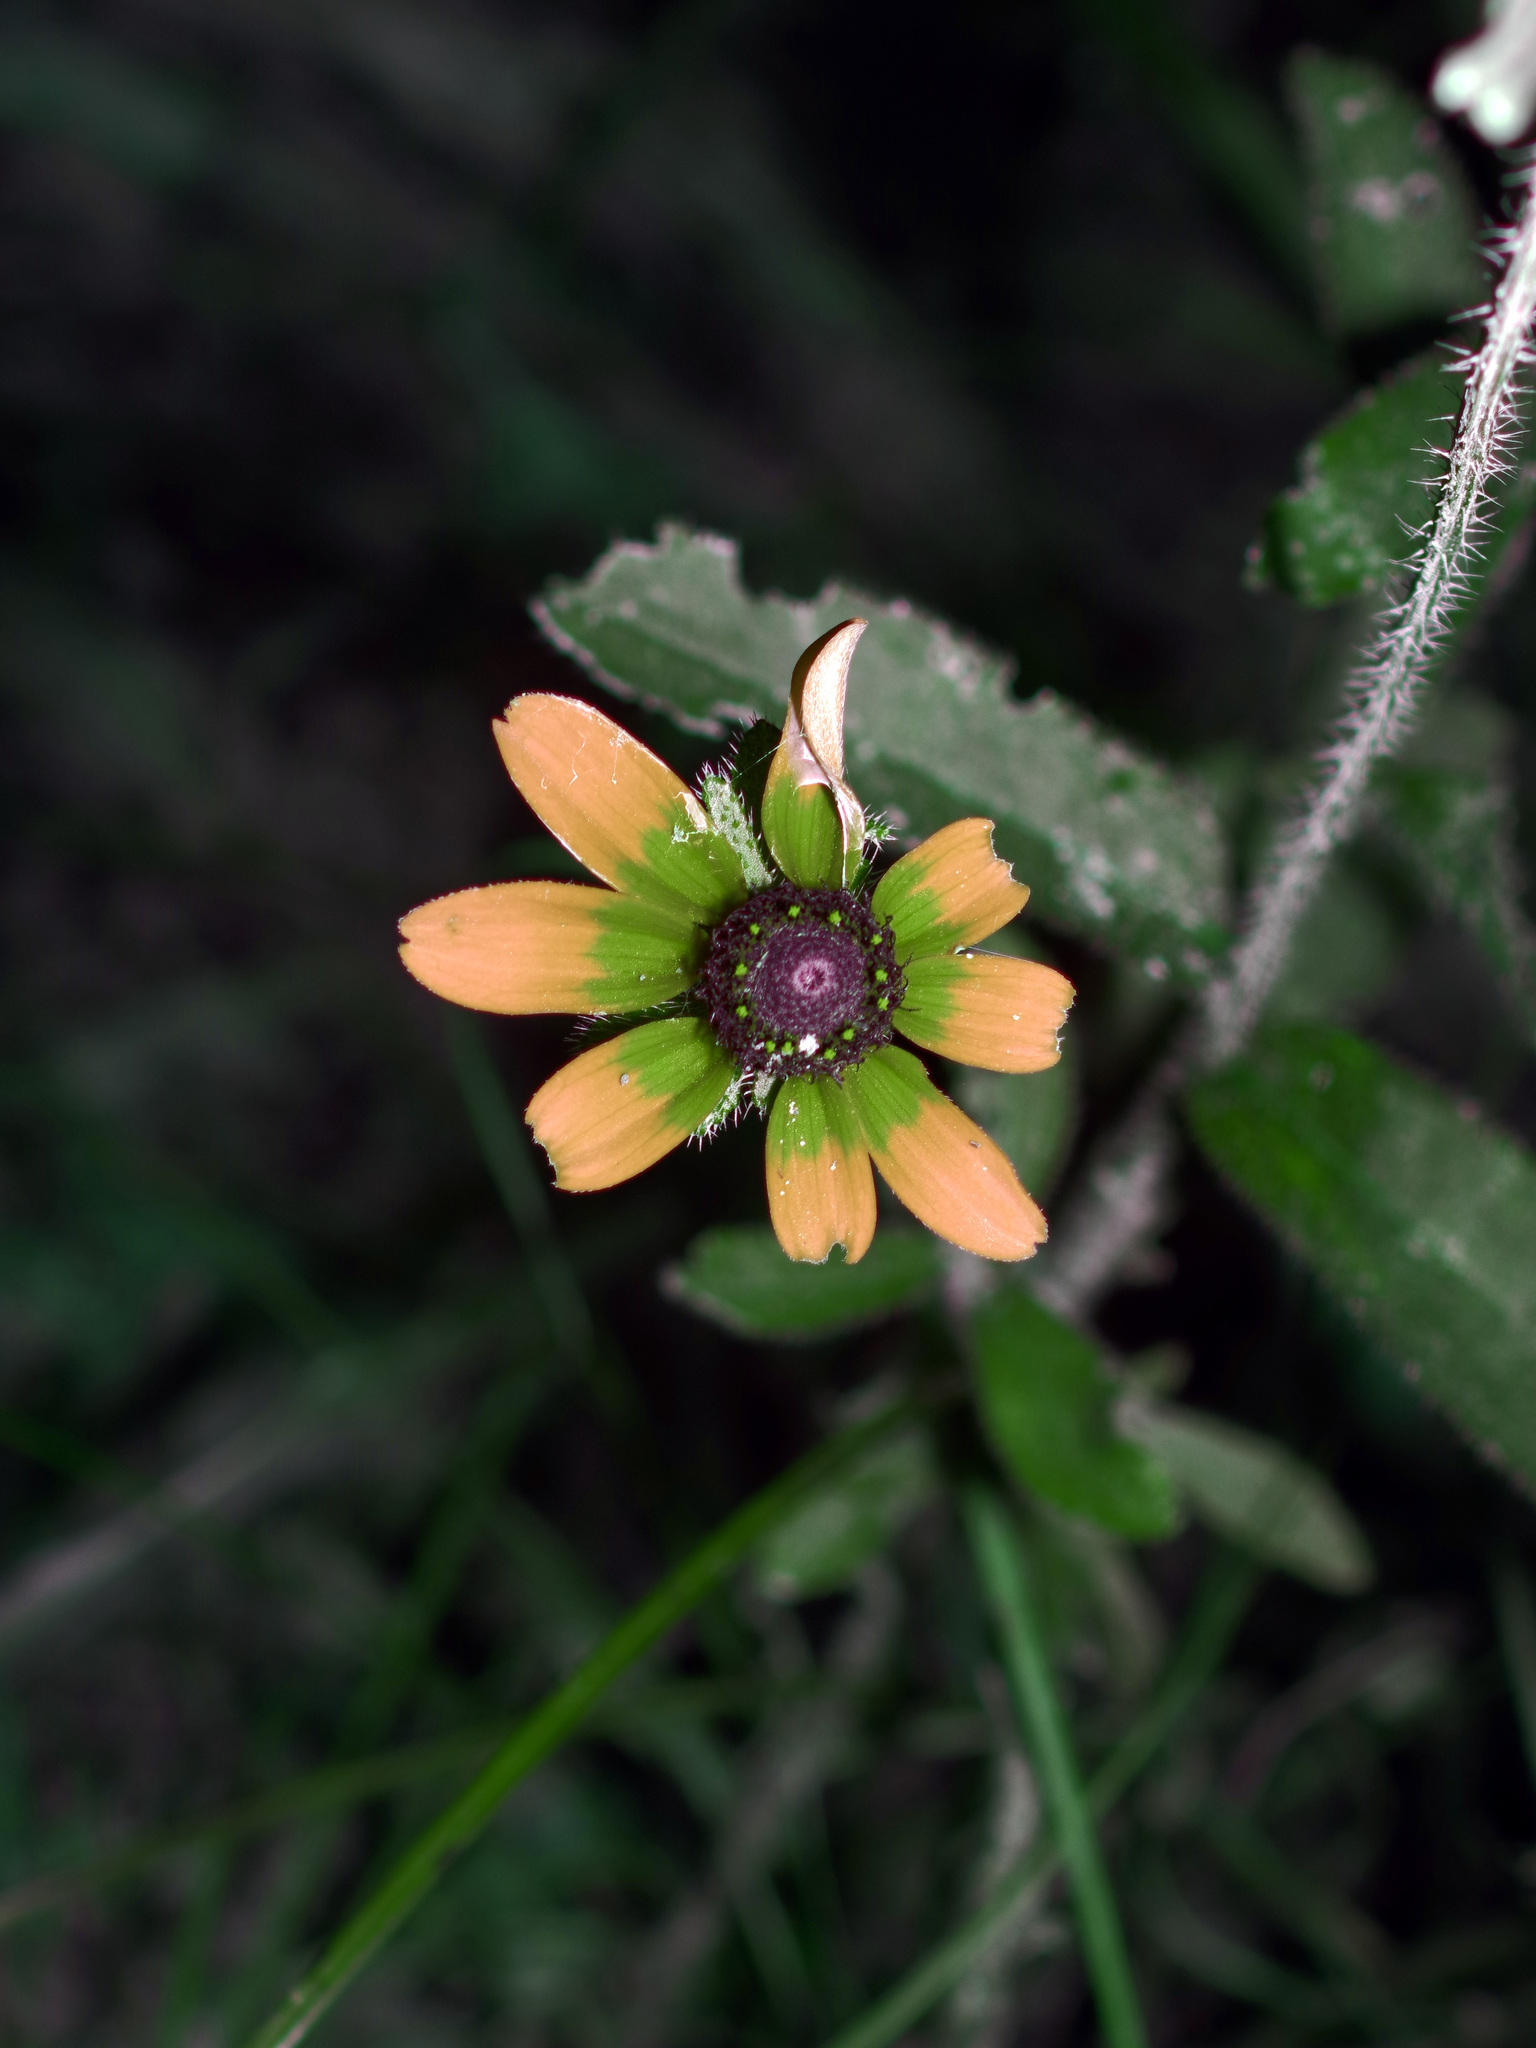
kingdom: Plantae
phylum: Tracheophyta
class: Magnoliopsida
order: Asterales
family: Asteraceae
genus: Rudbeckia
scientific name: Rudbeckia hirta
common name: Black-eyed-susan
